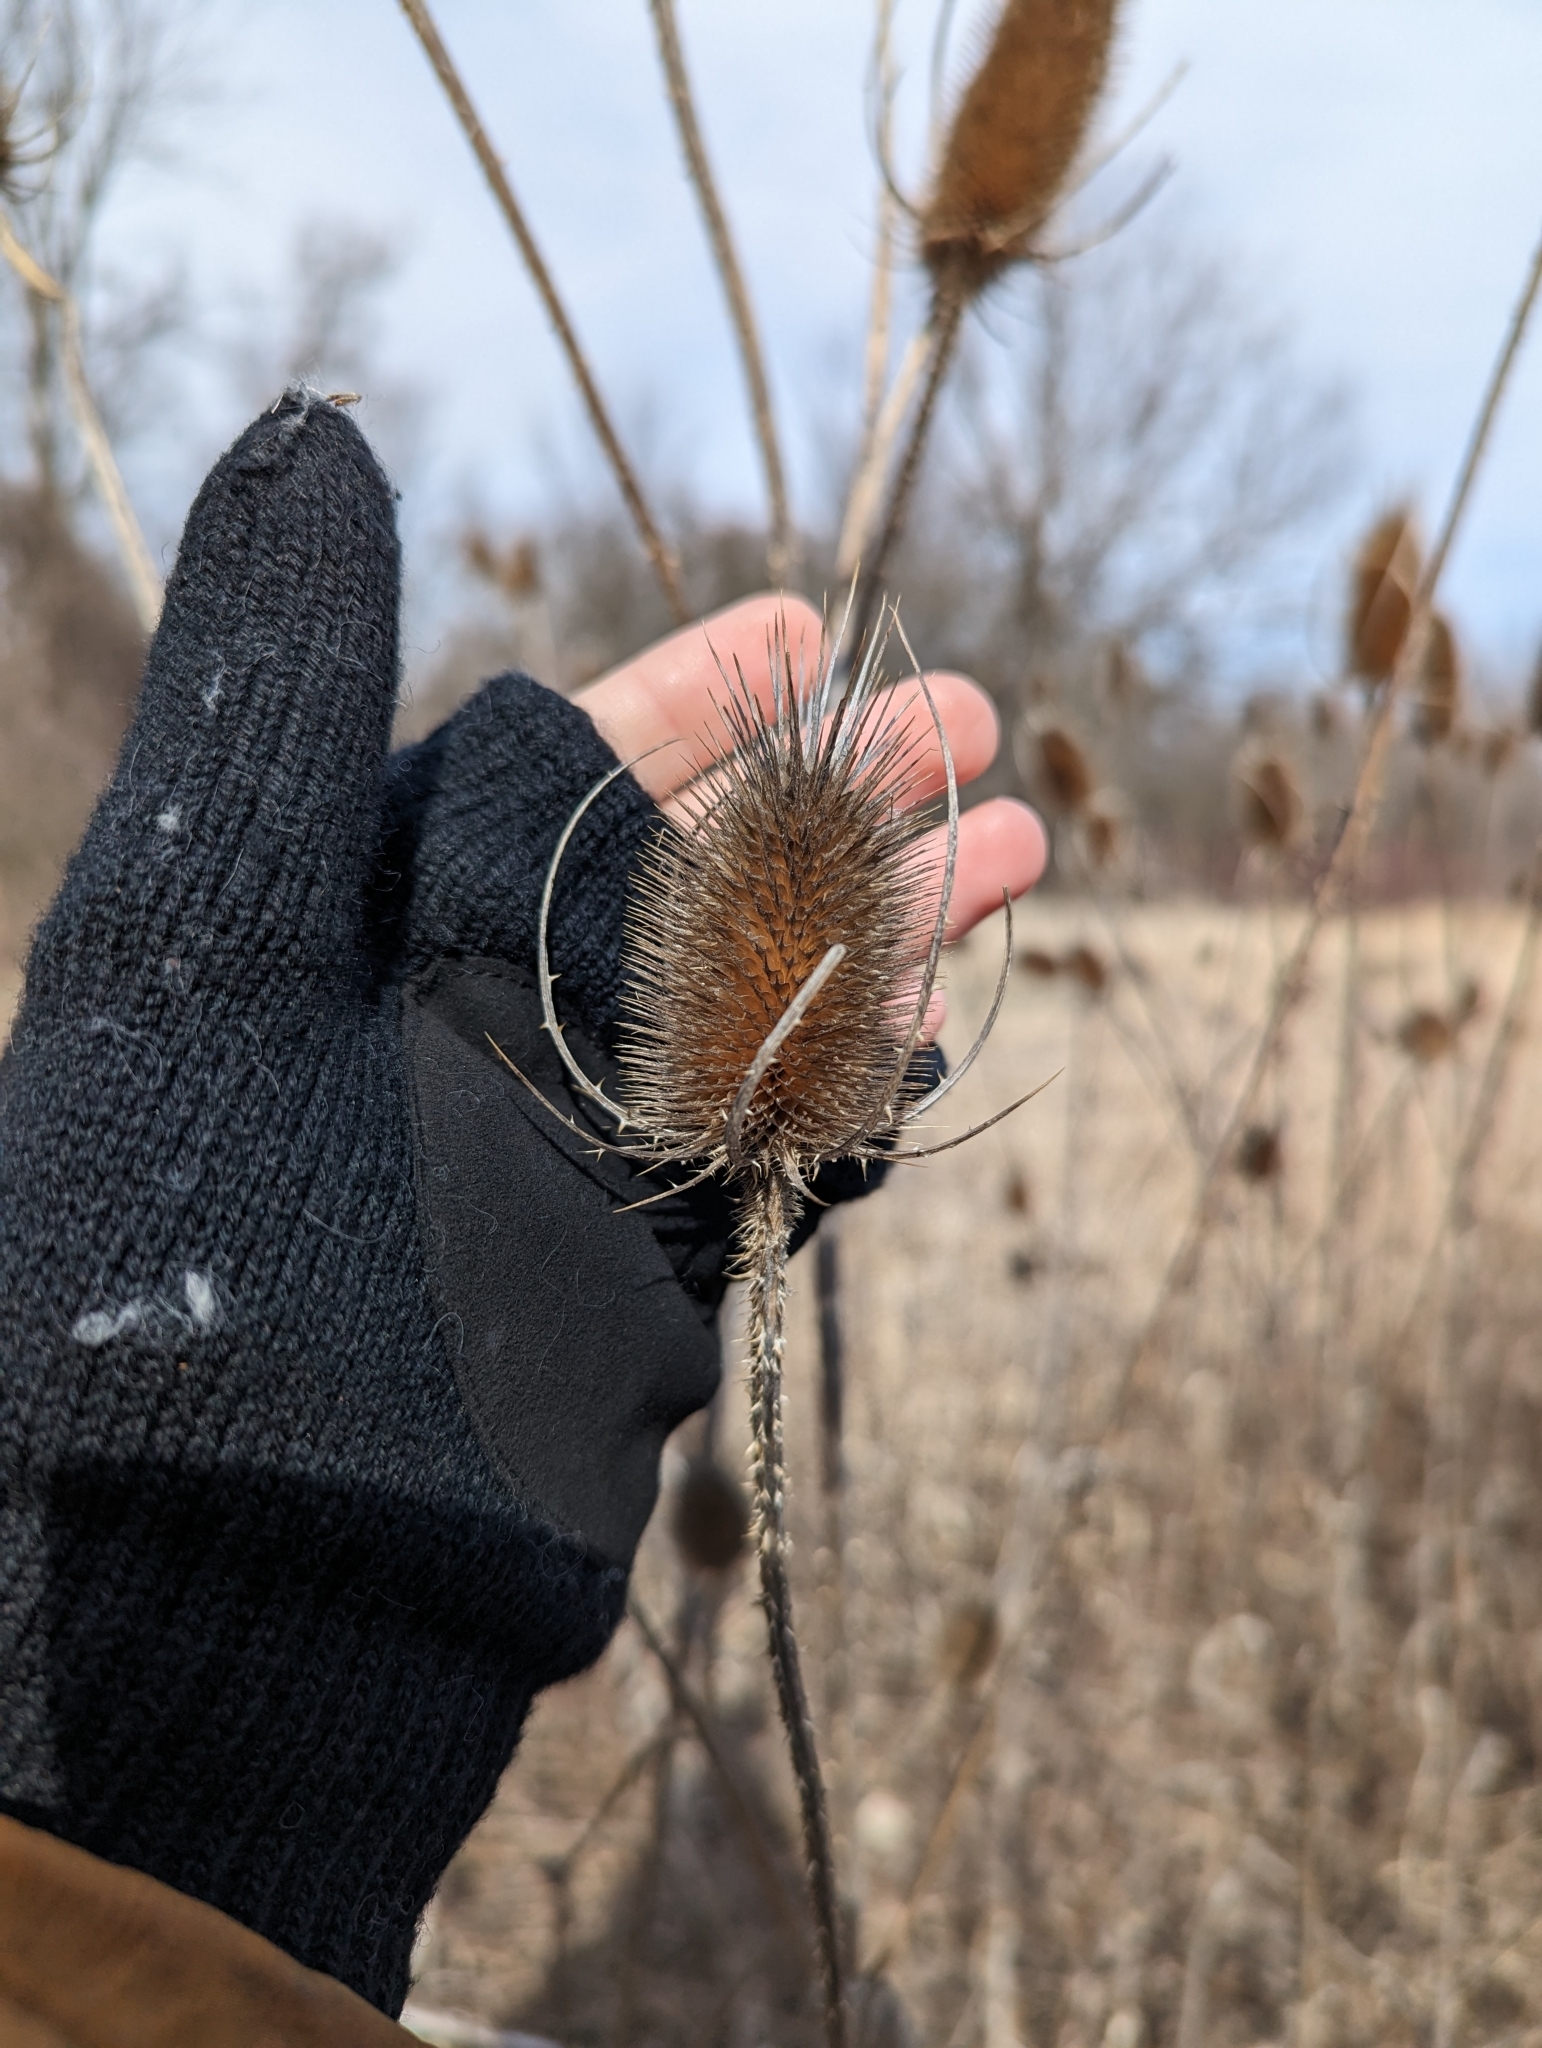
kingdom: Plantae
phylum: Tracheophyta
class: Magnoliopsida
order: Dipsacales
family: Caprifoliaceae
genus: Dipsacus
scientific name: Dipsacus fullonum
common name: Teasel
